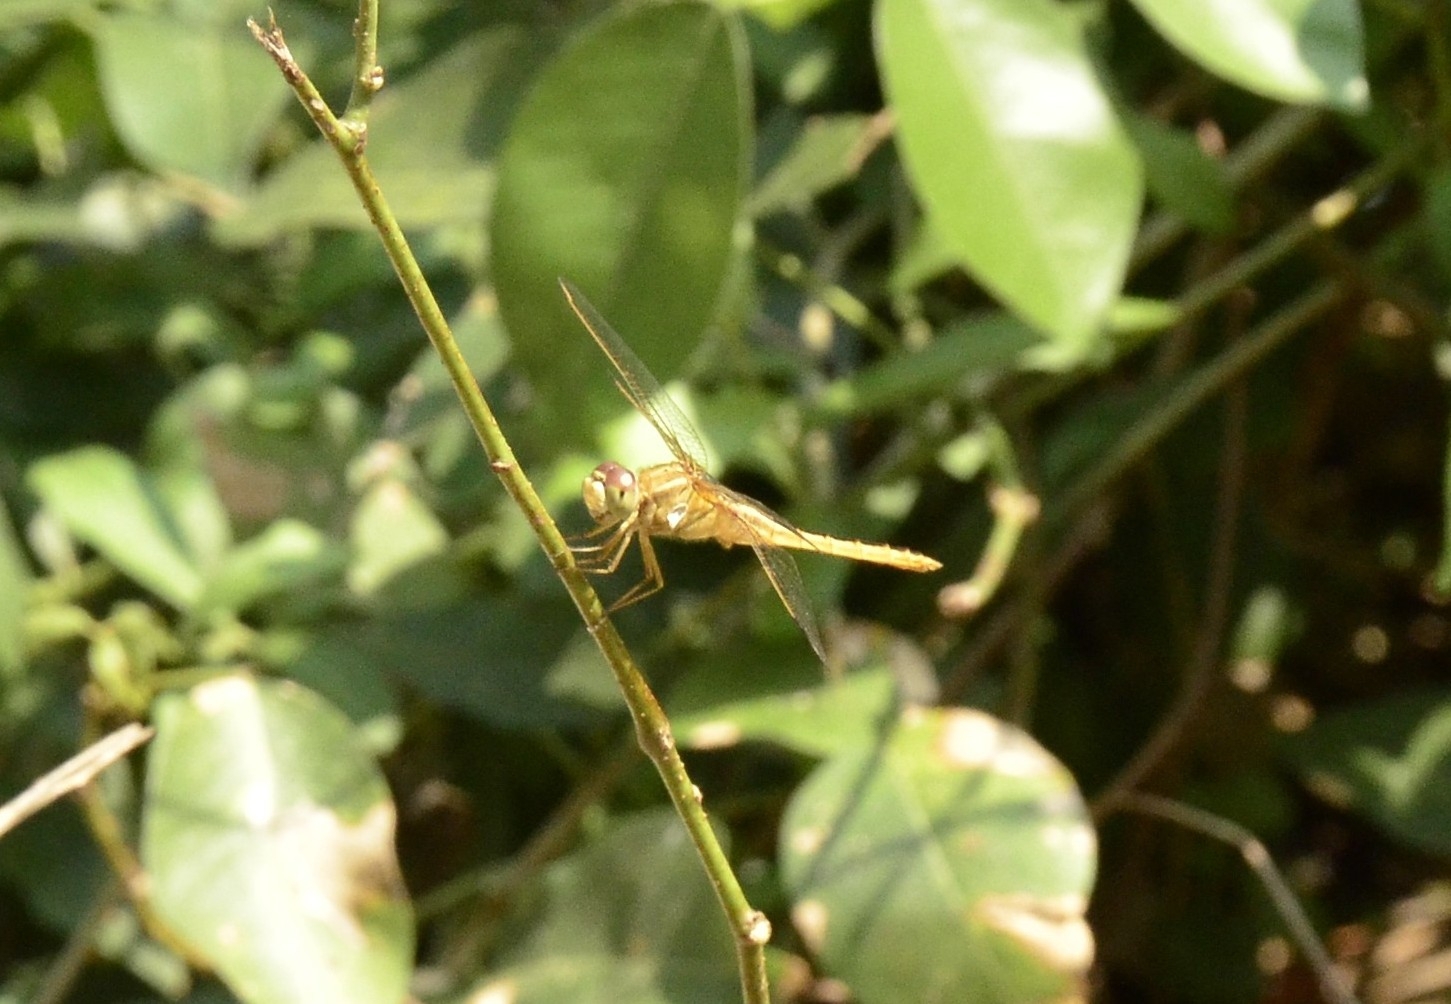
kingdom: Animalia
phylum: Arthropoda
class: Insecta
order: Odonata
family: Libellulidae
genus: Crocothemis
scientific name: Crocothemis servilia
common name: Scarlet skimmer
